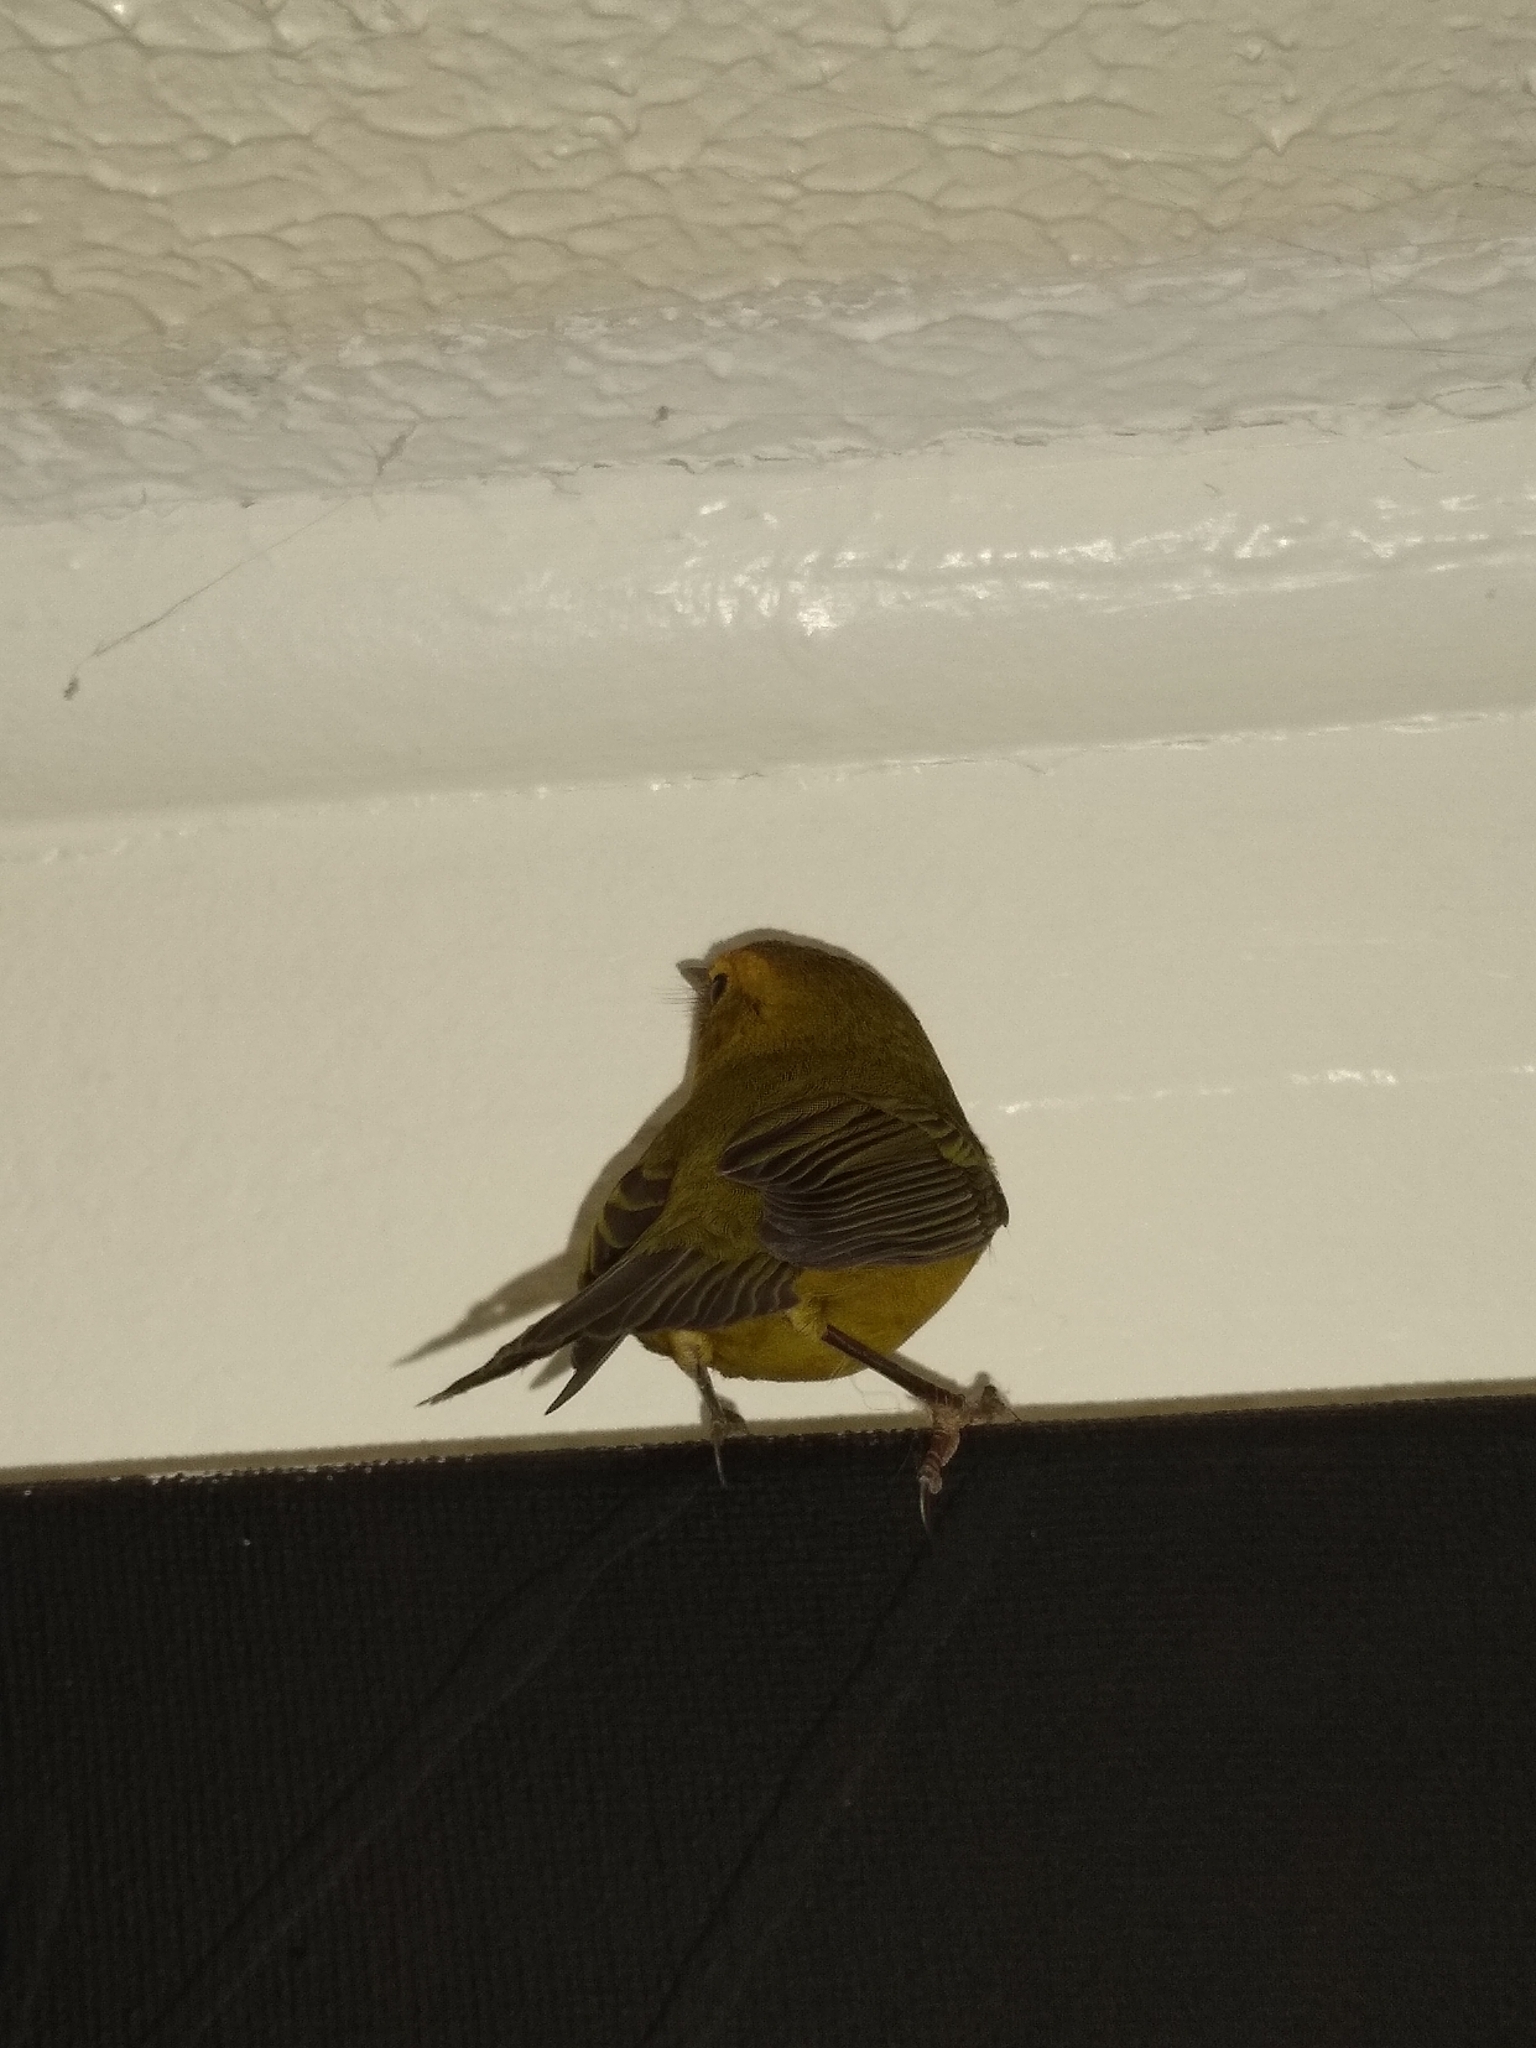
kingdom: Animalia
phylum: Chordata
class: Aves
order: Passeriformes
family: Parulidae
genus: Cardellina
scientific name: Cardellina pusilla
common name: Wilson's warbler
